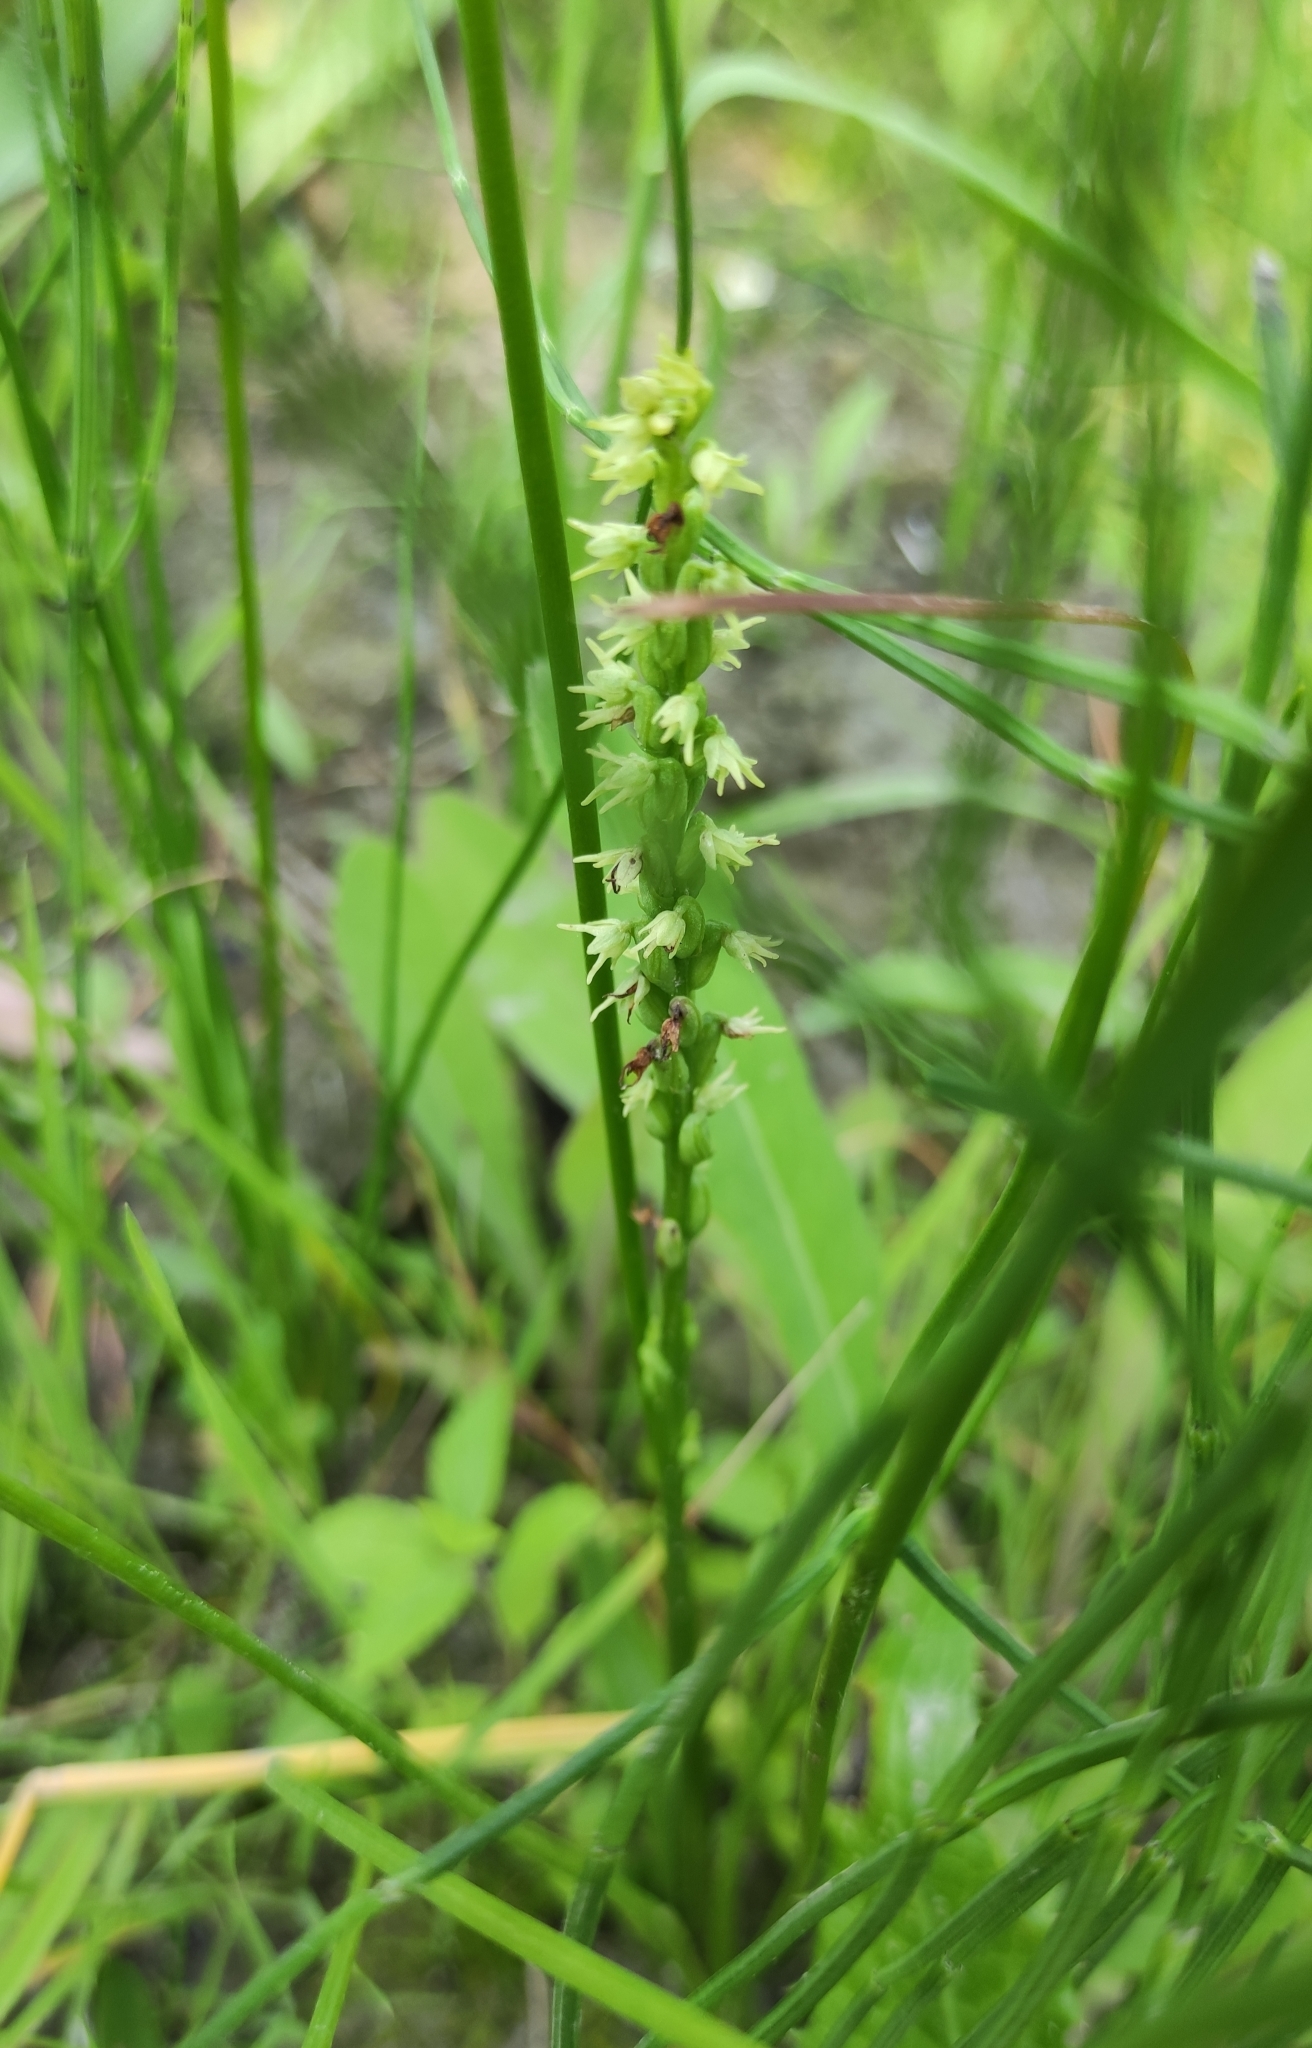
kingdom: Plantae
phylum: Tracheophyta
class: Liliopsida
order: Asparagales
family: Orchidaceae
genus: Herminium
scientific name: Herminium monorchis
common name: Musk orchid
